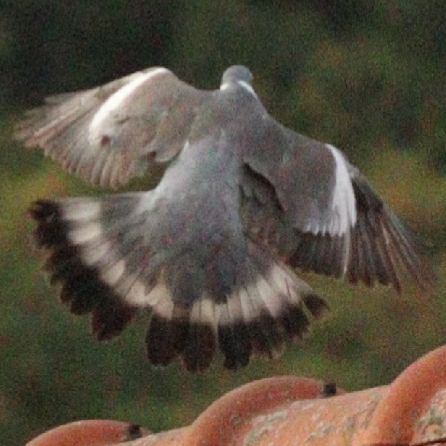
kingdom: Animalia
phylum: Chordata
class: Aves
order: Columbiformes
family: Columbidae
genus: Columba
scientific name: Columba palumbus
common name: Common wood pigeon
